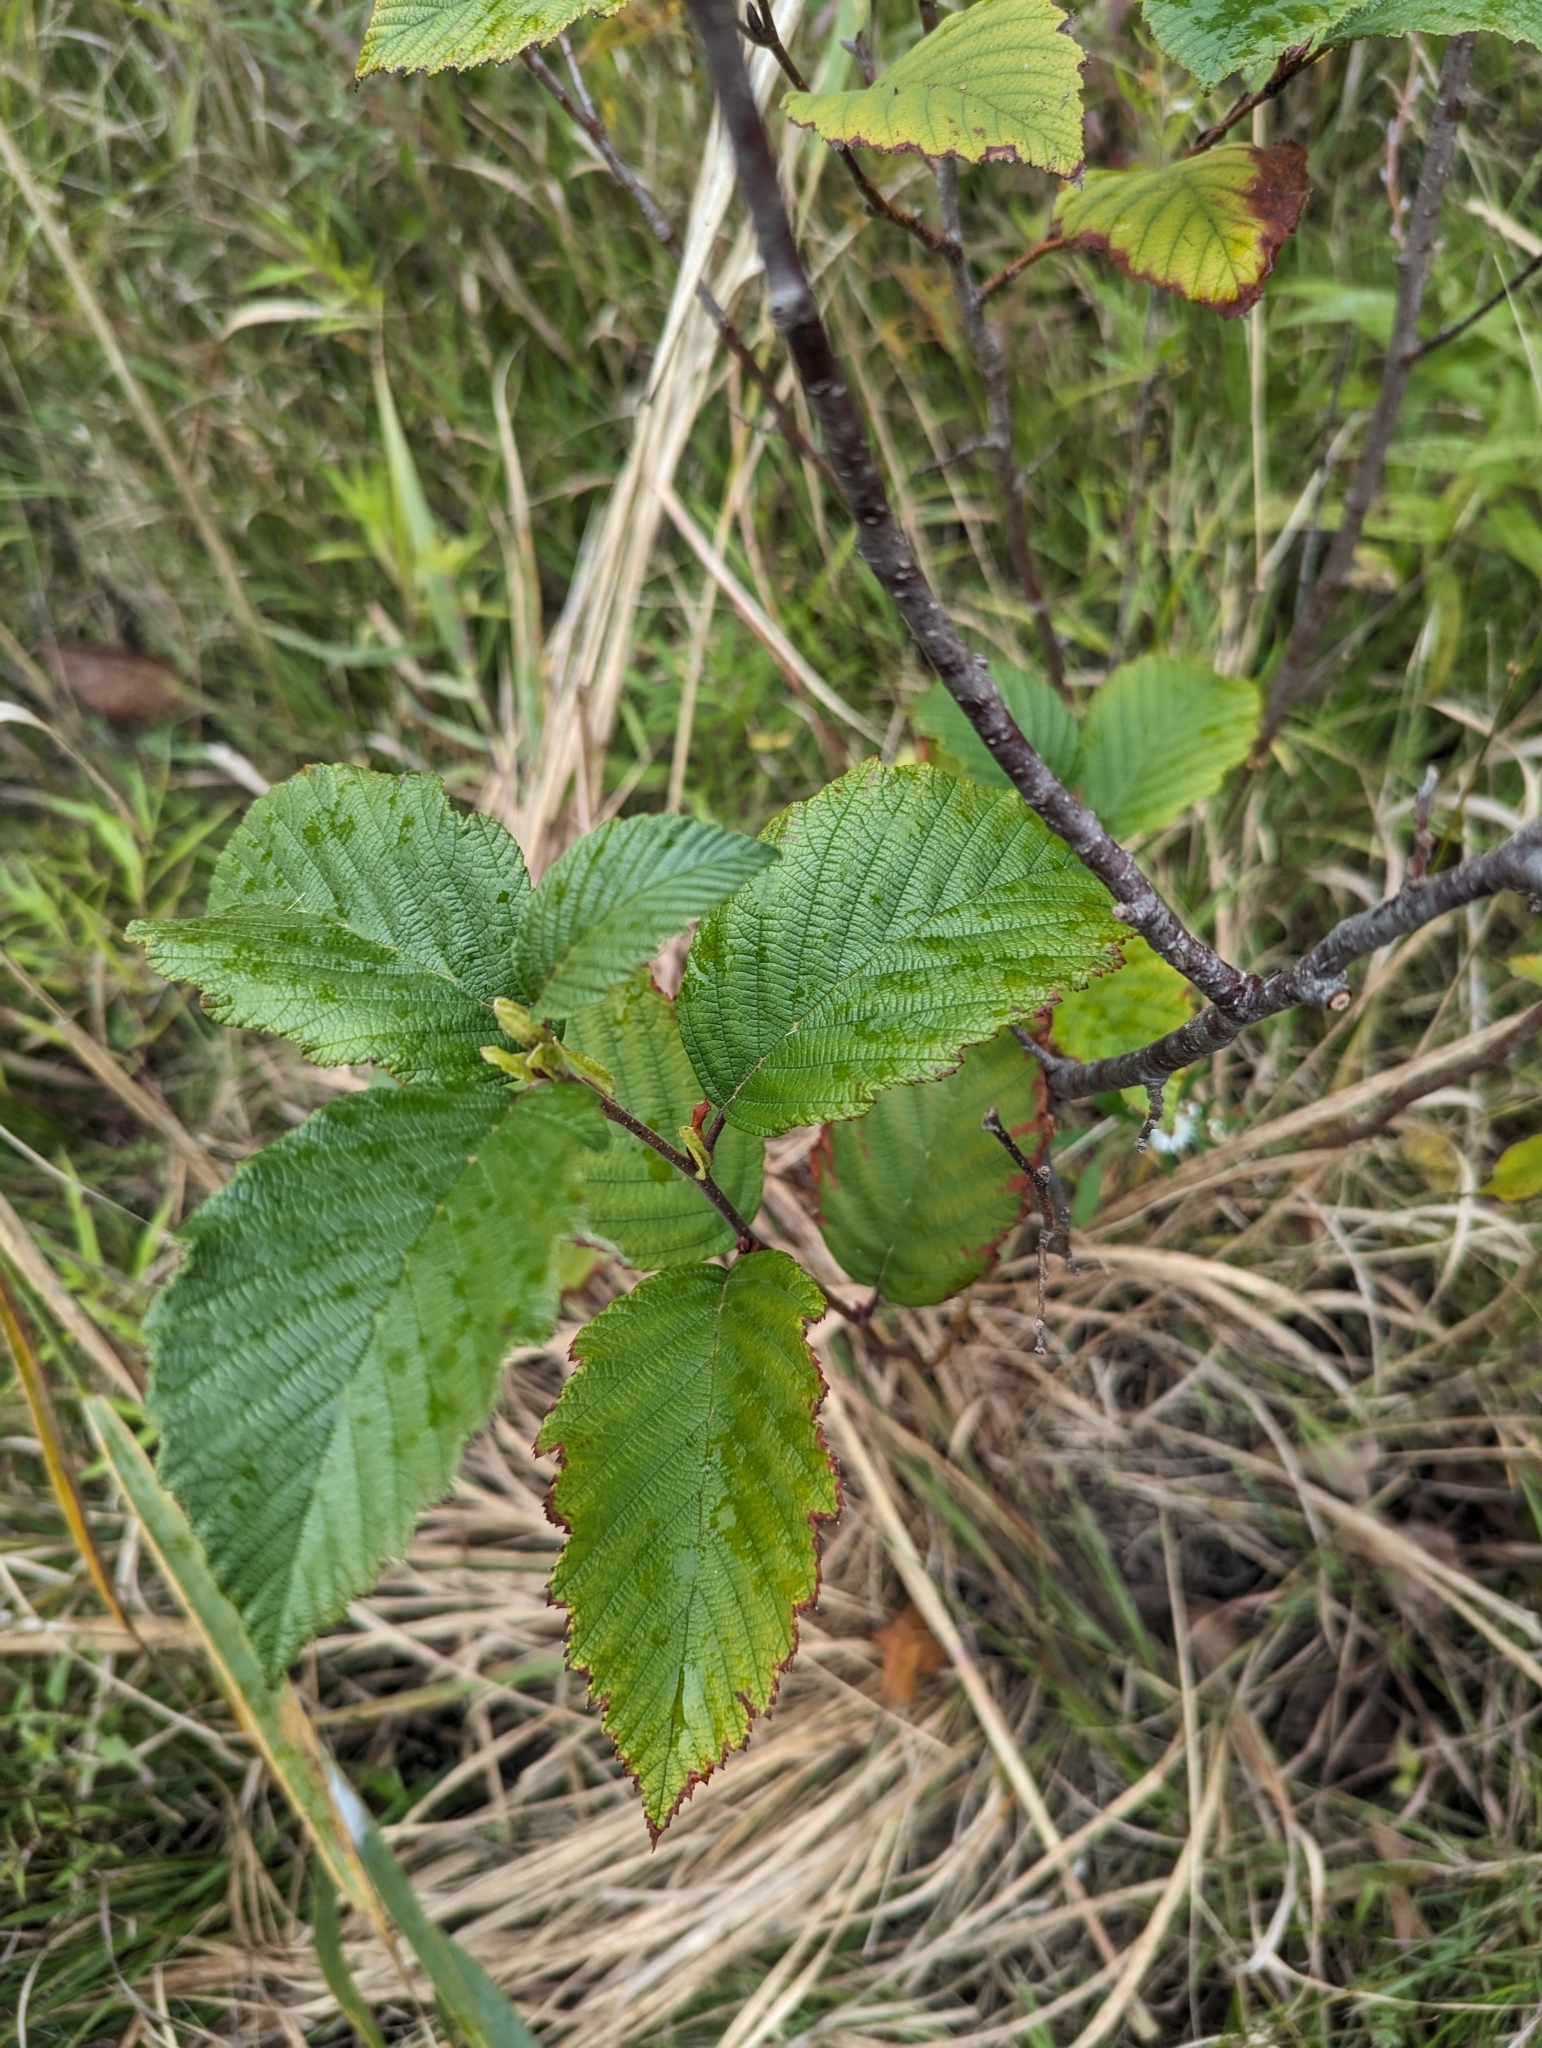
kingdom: Plantae
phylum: Tracheophyta
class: Magnoliopsida
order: Fagales
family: Betulaceae
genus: Alnus
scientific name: Alnus incana
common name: Grey alder
